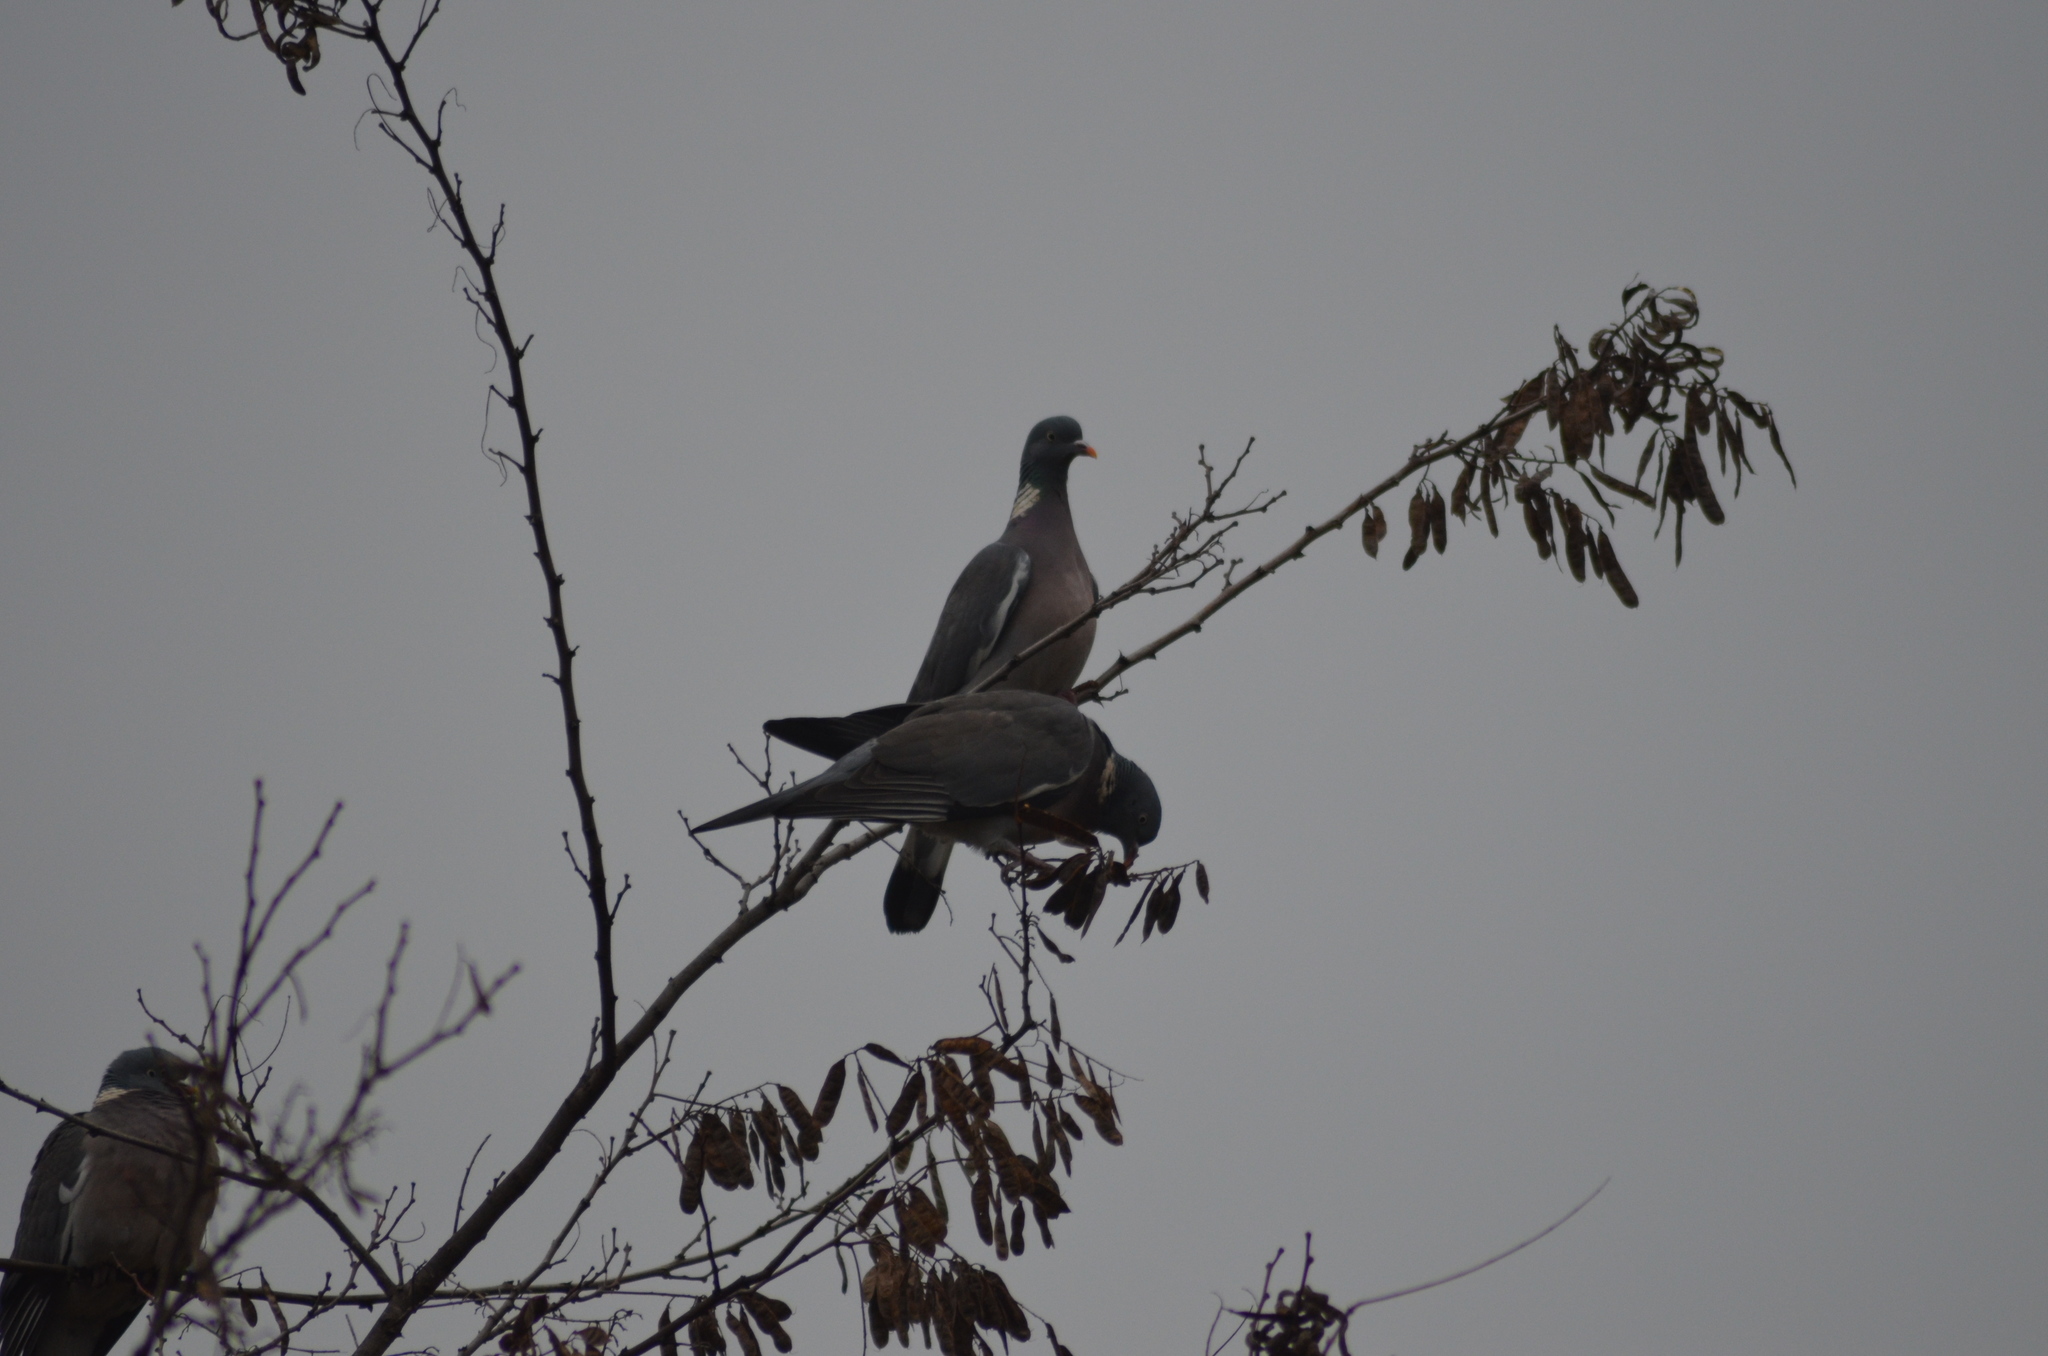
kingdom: Animalia
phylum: Chordata
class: Aves
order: Columbiformes
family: Columbidae
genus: Columba
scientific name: Columba palumbus
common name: Common wood pigeon
